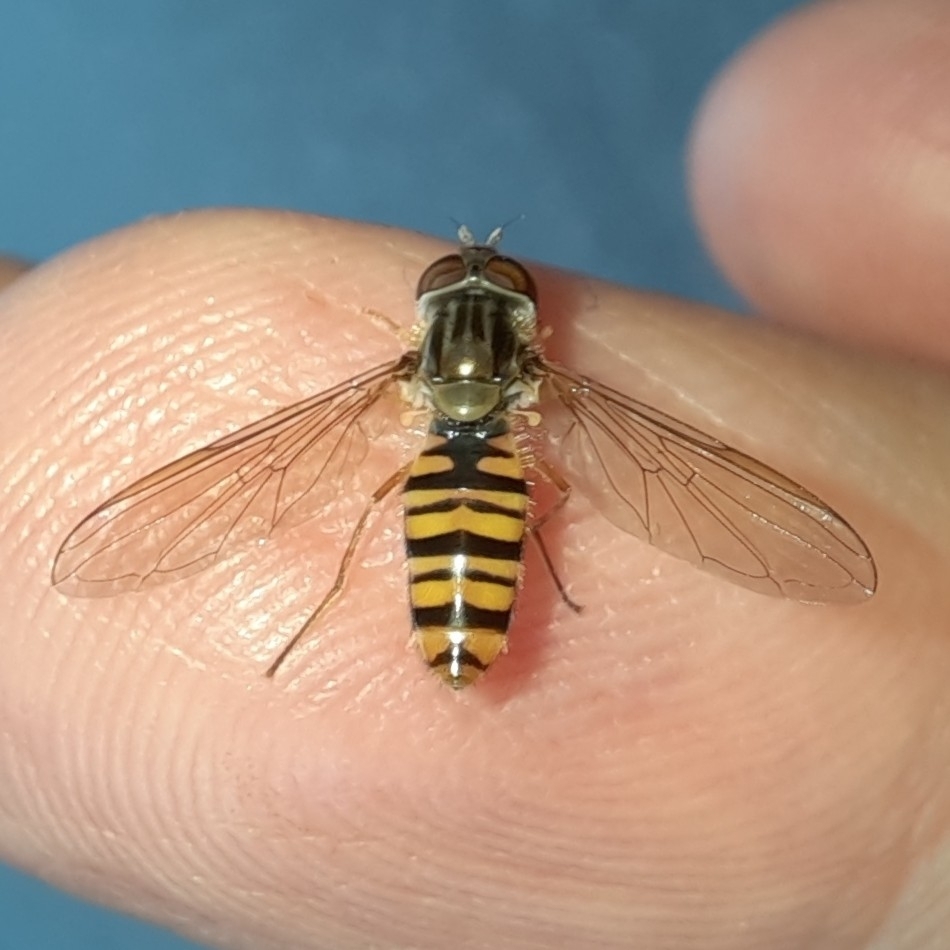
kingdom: Animalia
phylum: Arthropoda
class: Insecta
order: Diptera
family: Syrphidae
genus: Episyrphus
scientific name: Episyrphus balteatus
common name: Marmalade hoverfly
